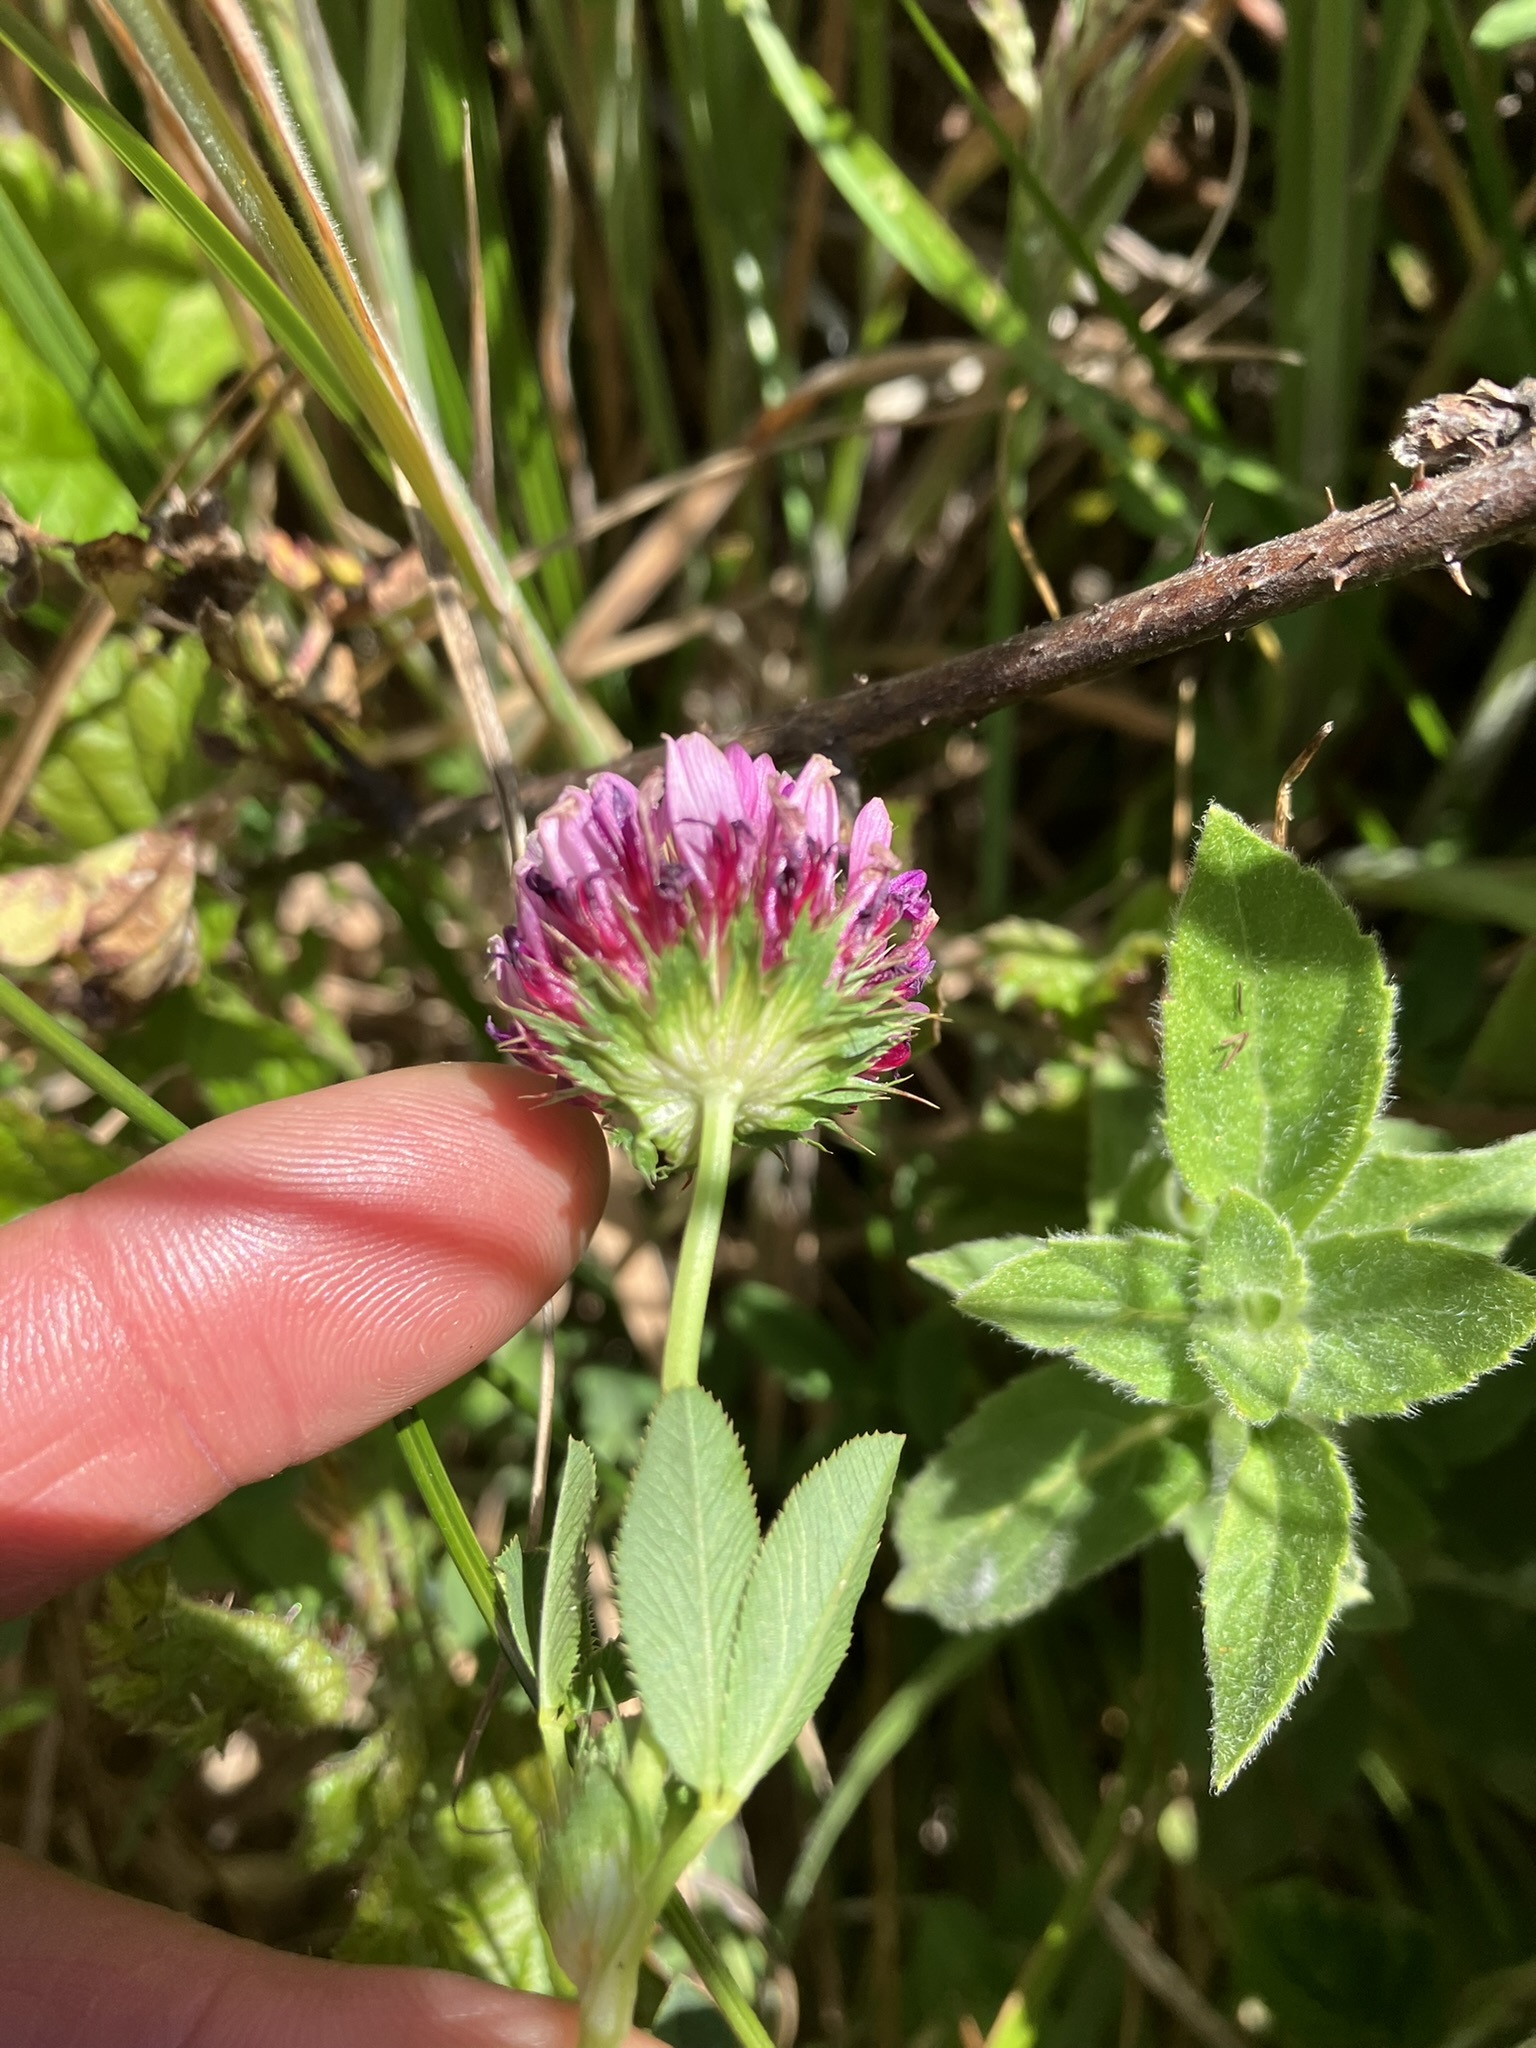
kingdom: Plantae
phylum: Tracheophyta
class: Magnoliopsida
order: Fabales
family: Fabaceae
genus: Trifolium
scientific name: Trifolium wormskioldii
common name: Springbank clover
